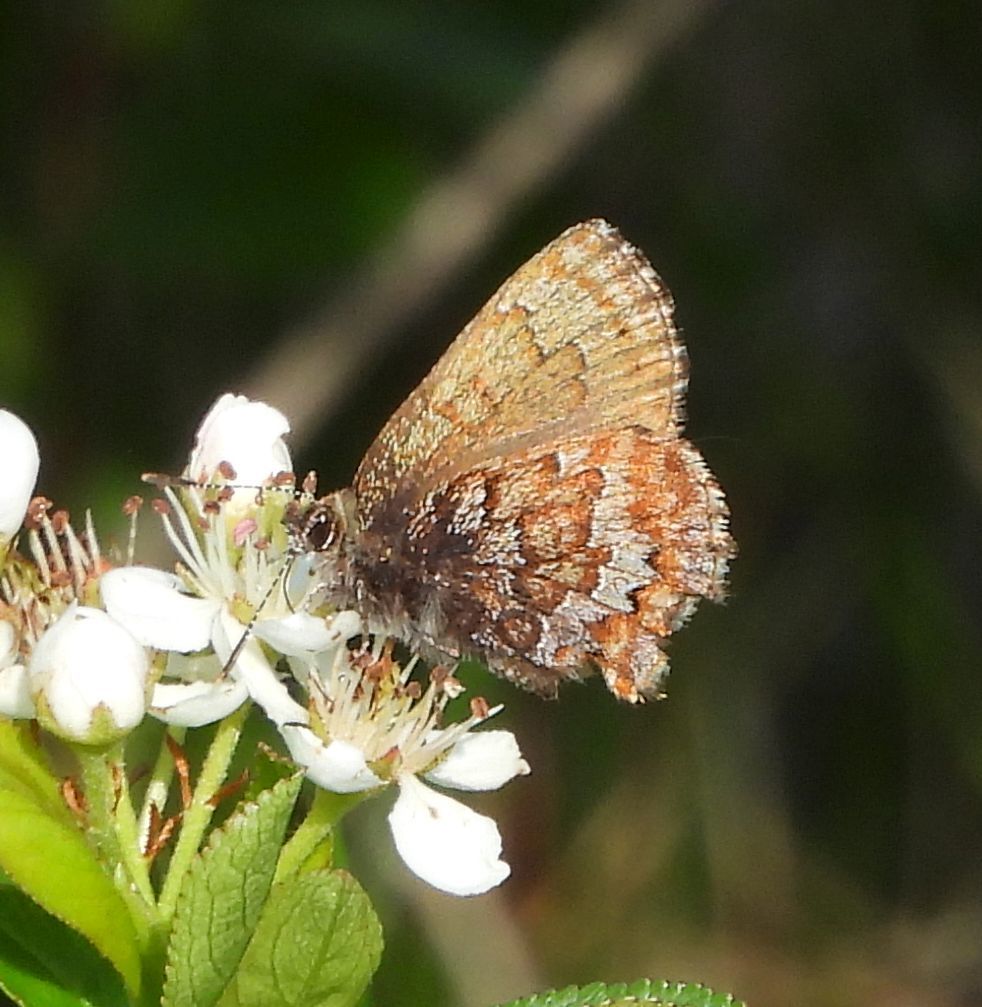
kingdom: Animalia
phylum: Arthropoda
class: Insecta
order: Lepidoptera
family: Lycaenidae
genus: Incisalia
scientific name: Incisalia niphon
